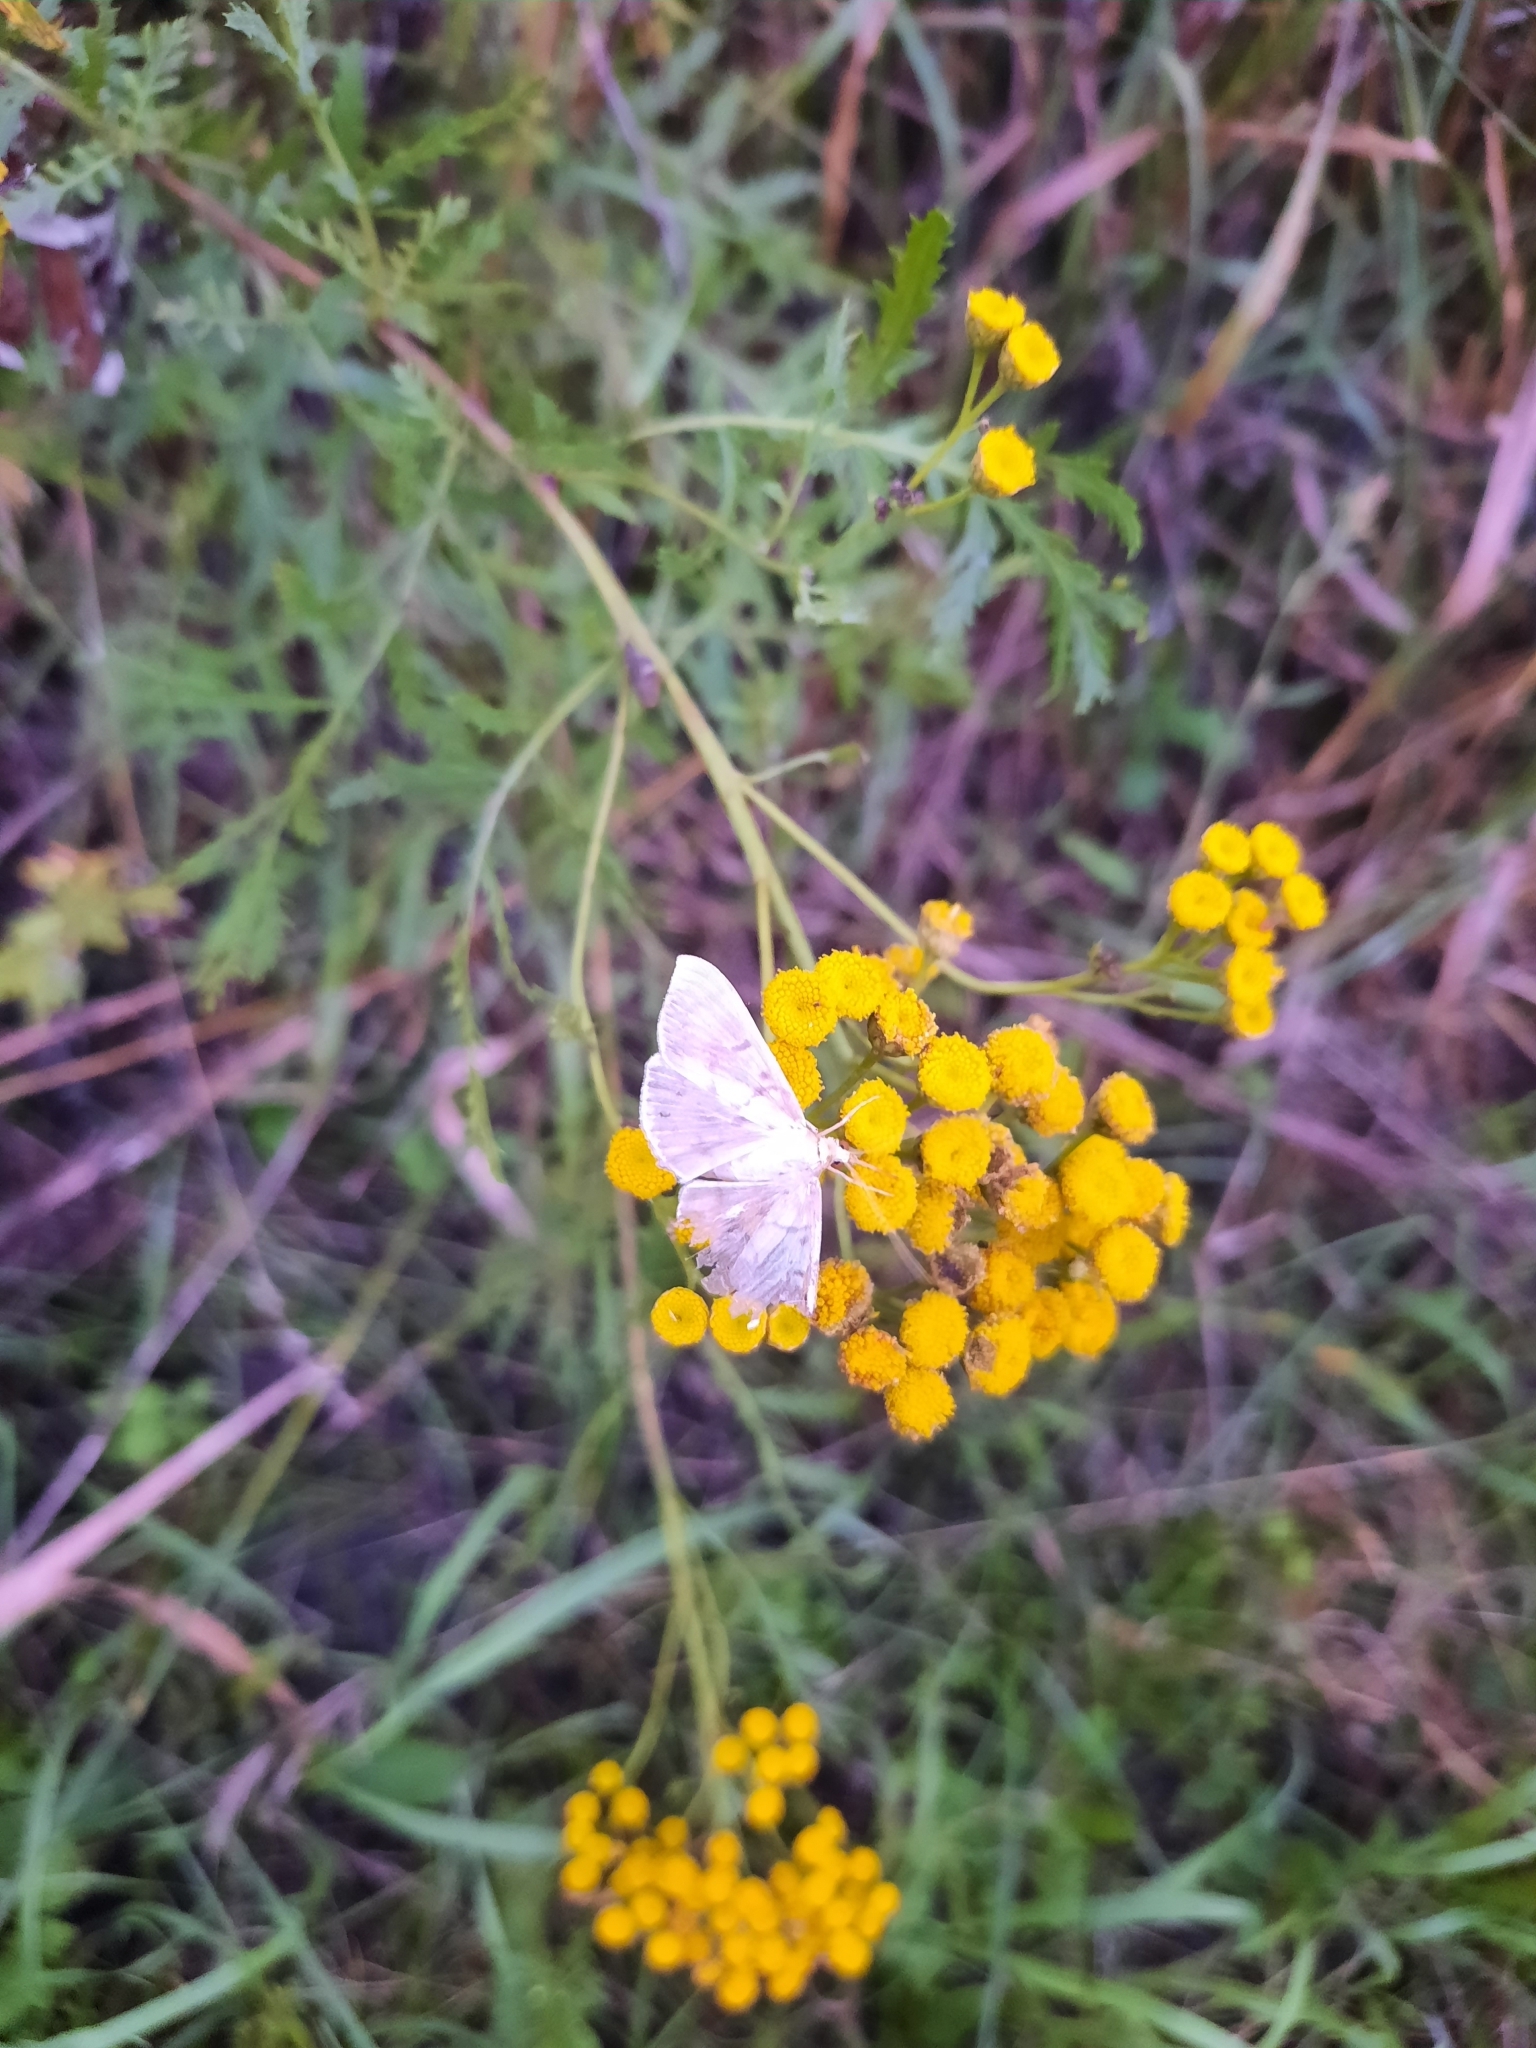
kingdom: Animalia
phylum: Arthropoda
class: Insecta
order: Lepidoptera
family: Crambidae
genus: Patania
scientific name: Patania ruralis
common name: Mother of pearl
